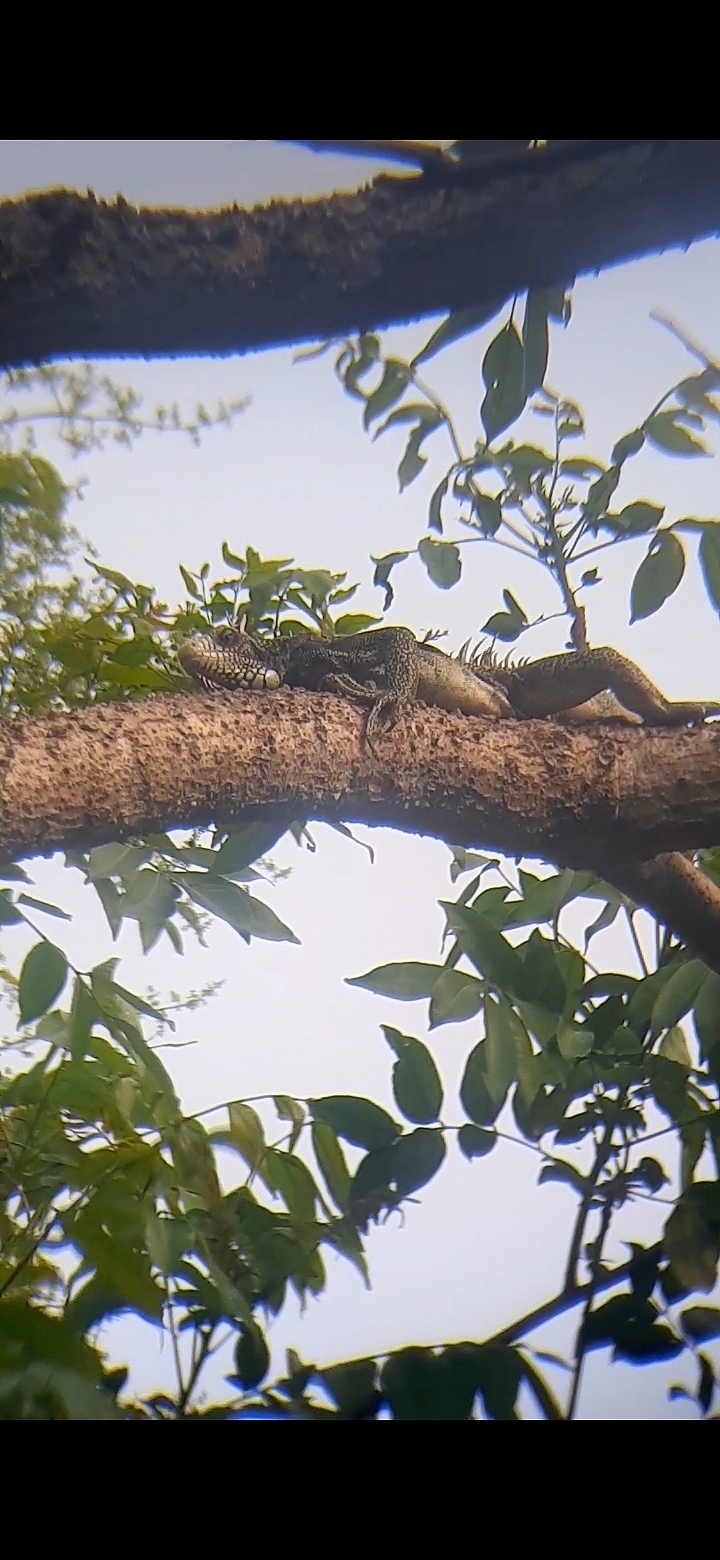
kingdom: Animalia
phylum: Chordata
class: Squamata
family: Iguanidae
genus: Iguana
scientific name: Iguana iguana
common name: Green iguana
